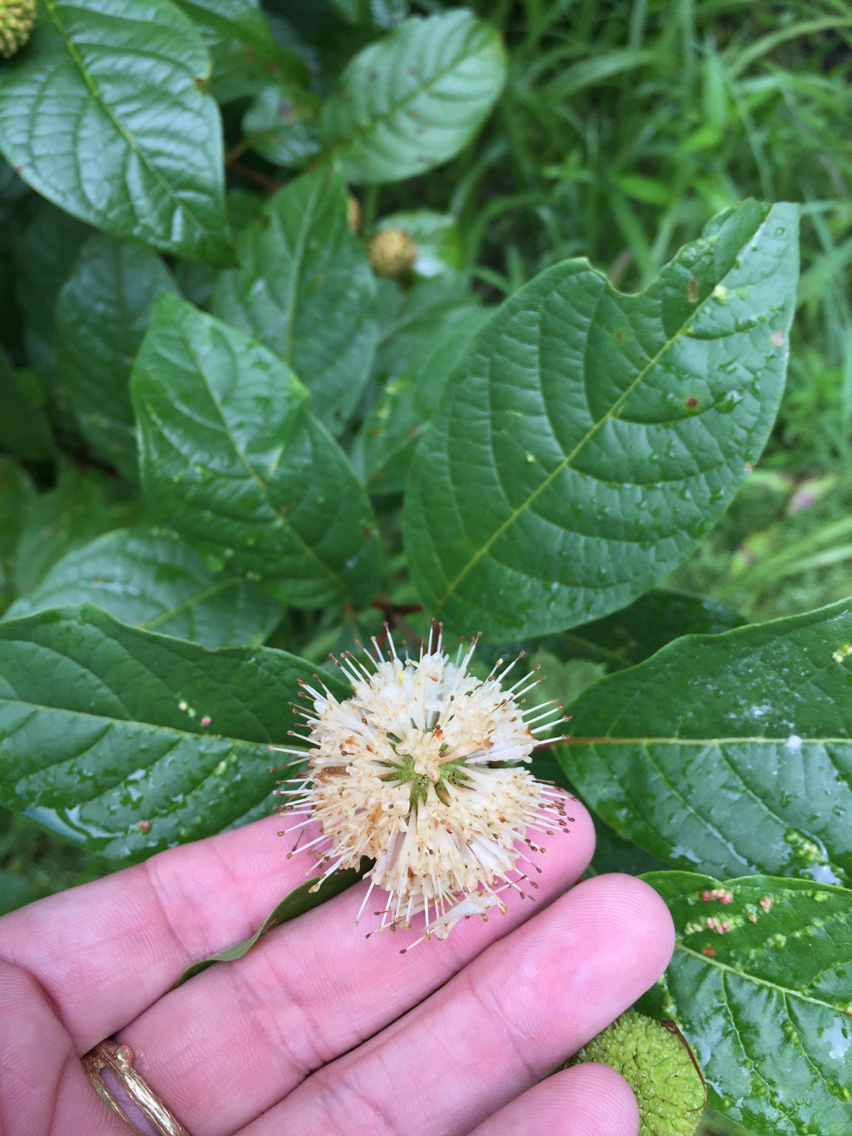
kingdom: Plantae
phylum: Tracheophyta
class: Magnoliopsida
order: Gentianales
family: Rubiaceae
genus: Cephalanthus
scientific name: Cephalanthus occidentalis
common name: Button-willow
